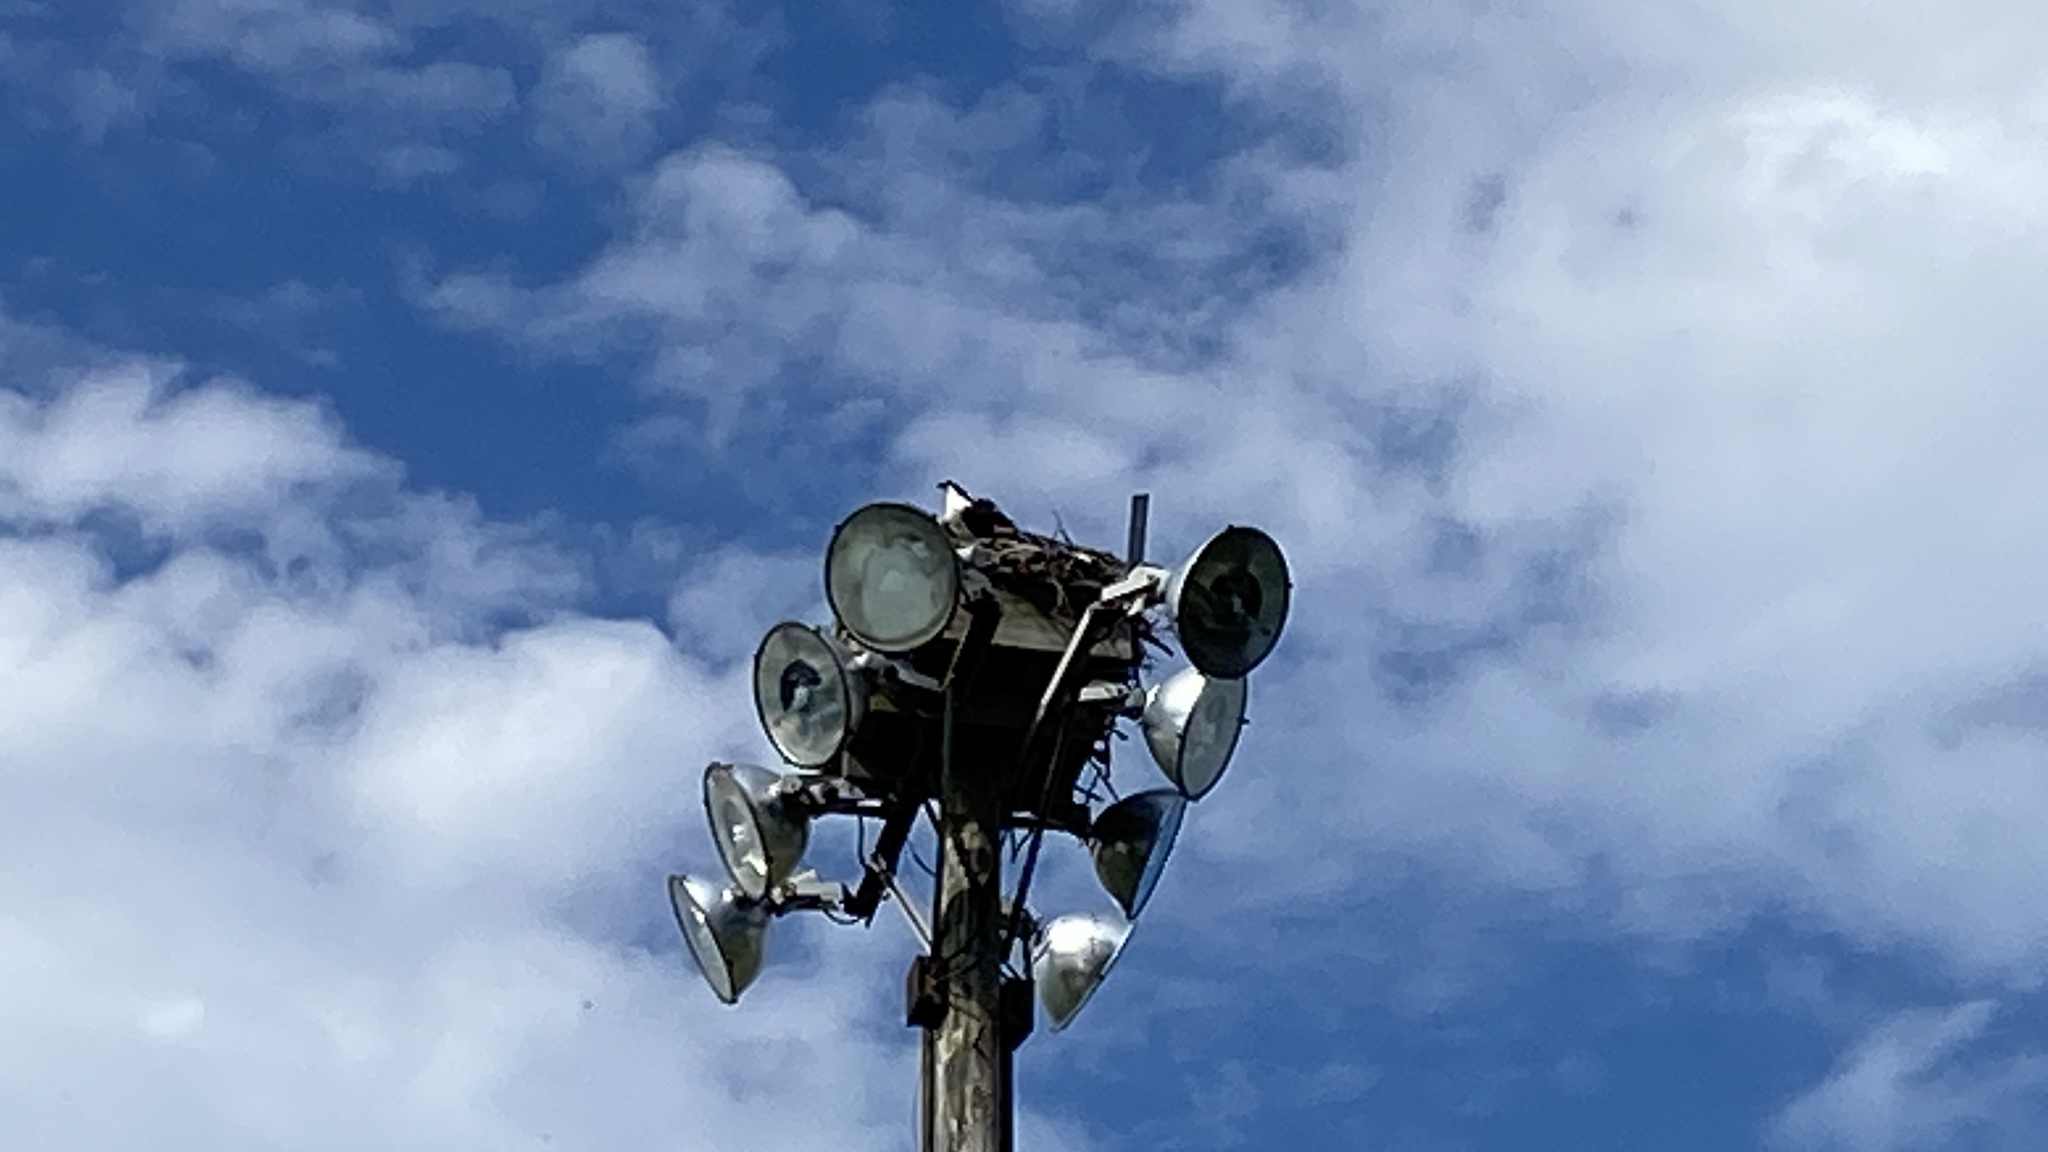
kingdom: Animalia
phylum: Chordata
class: Aves
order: Accipitriformes
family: Pandionidae
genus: Pandion
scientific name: Pandion haliaetus
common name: Osprey
